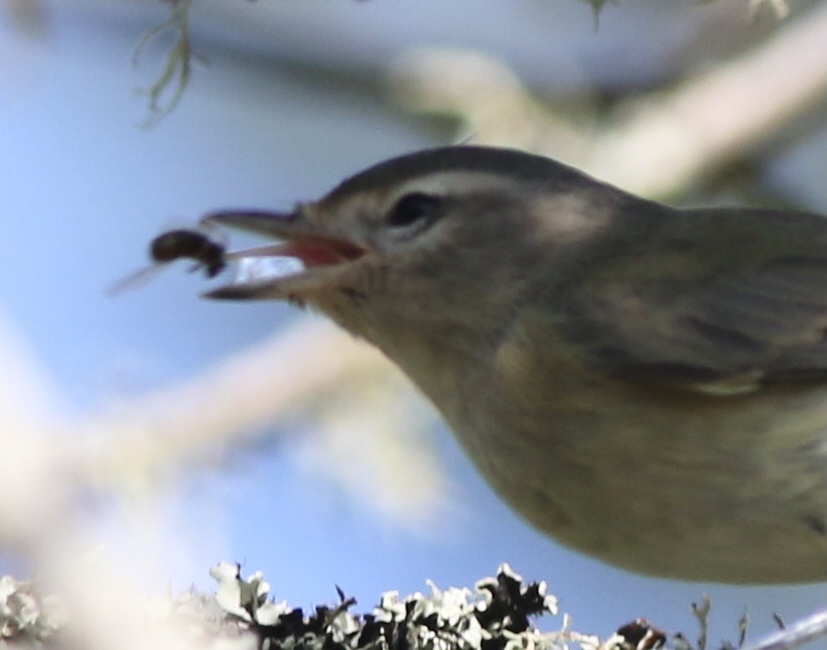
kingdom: Animalia
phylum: Chordata
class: Aves
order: Passeriformes
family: Vireonidae
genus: Vireo
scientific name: Vireo gilvus
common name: Warbling vireo
